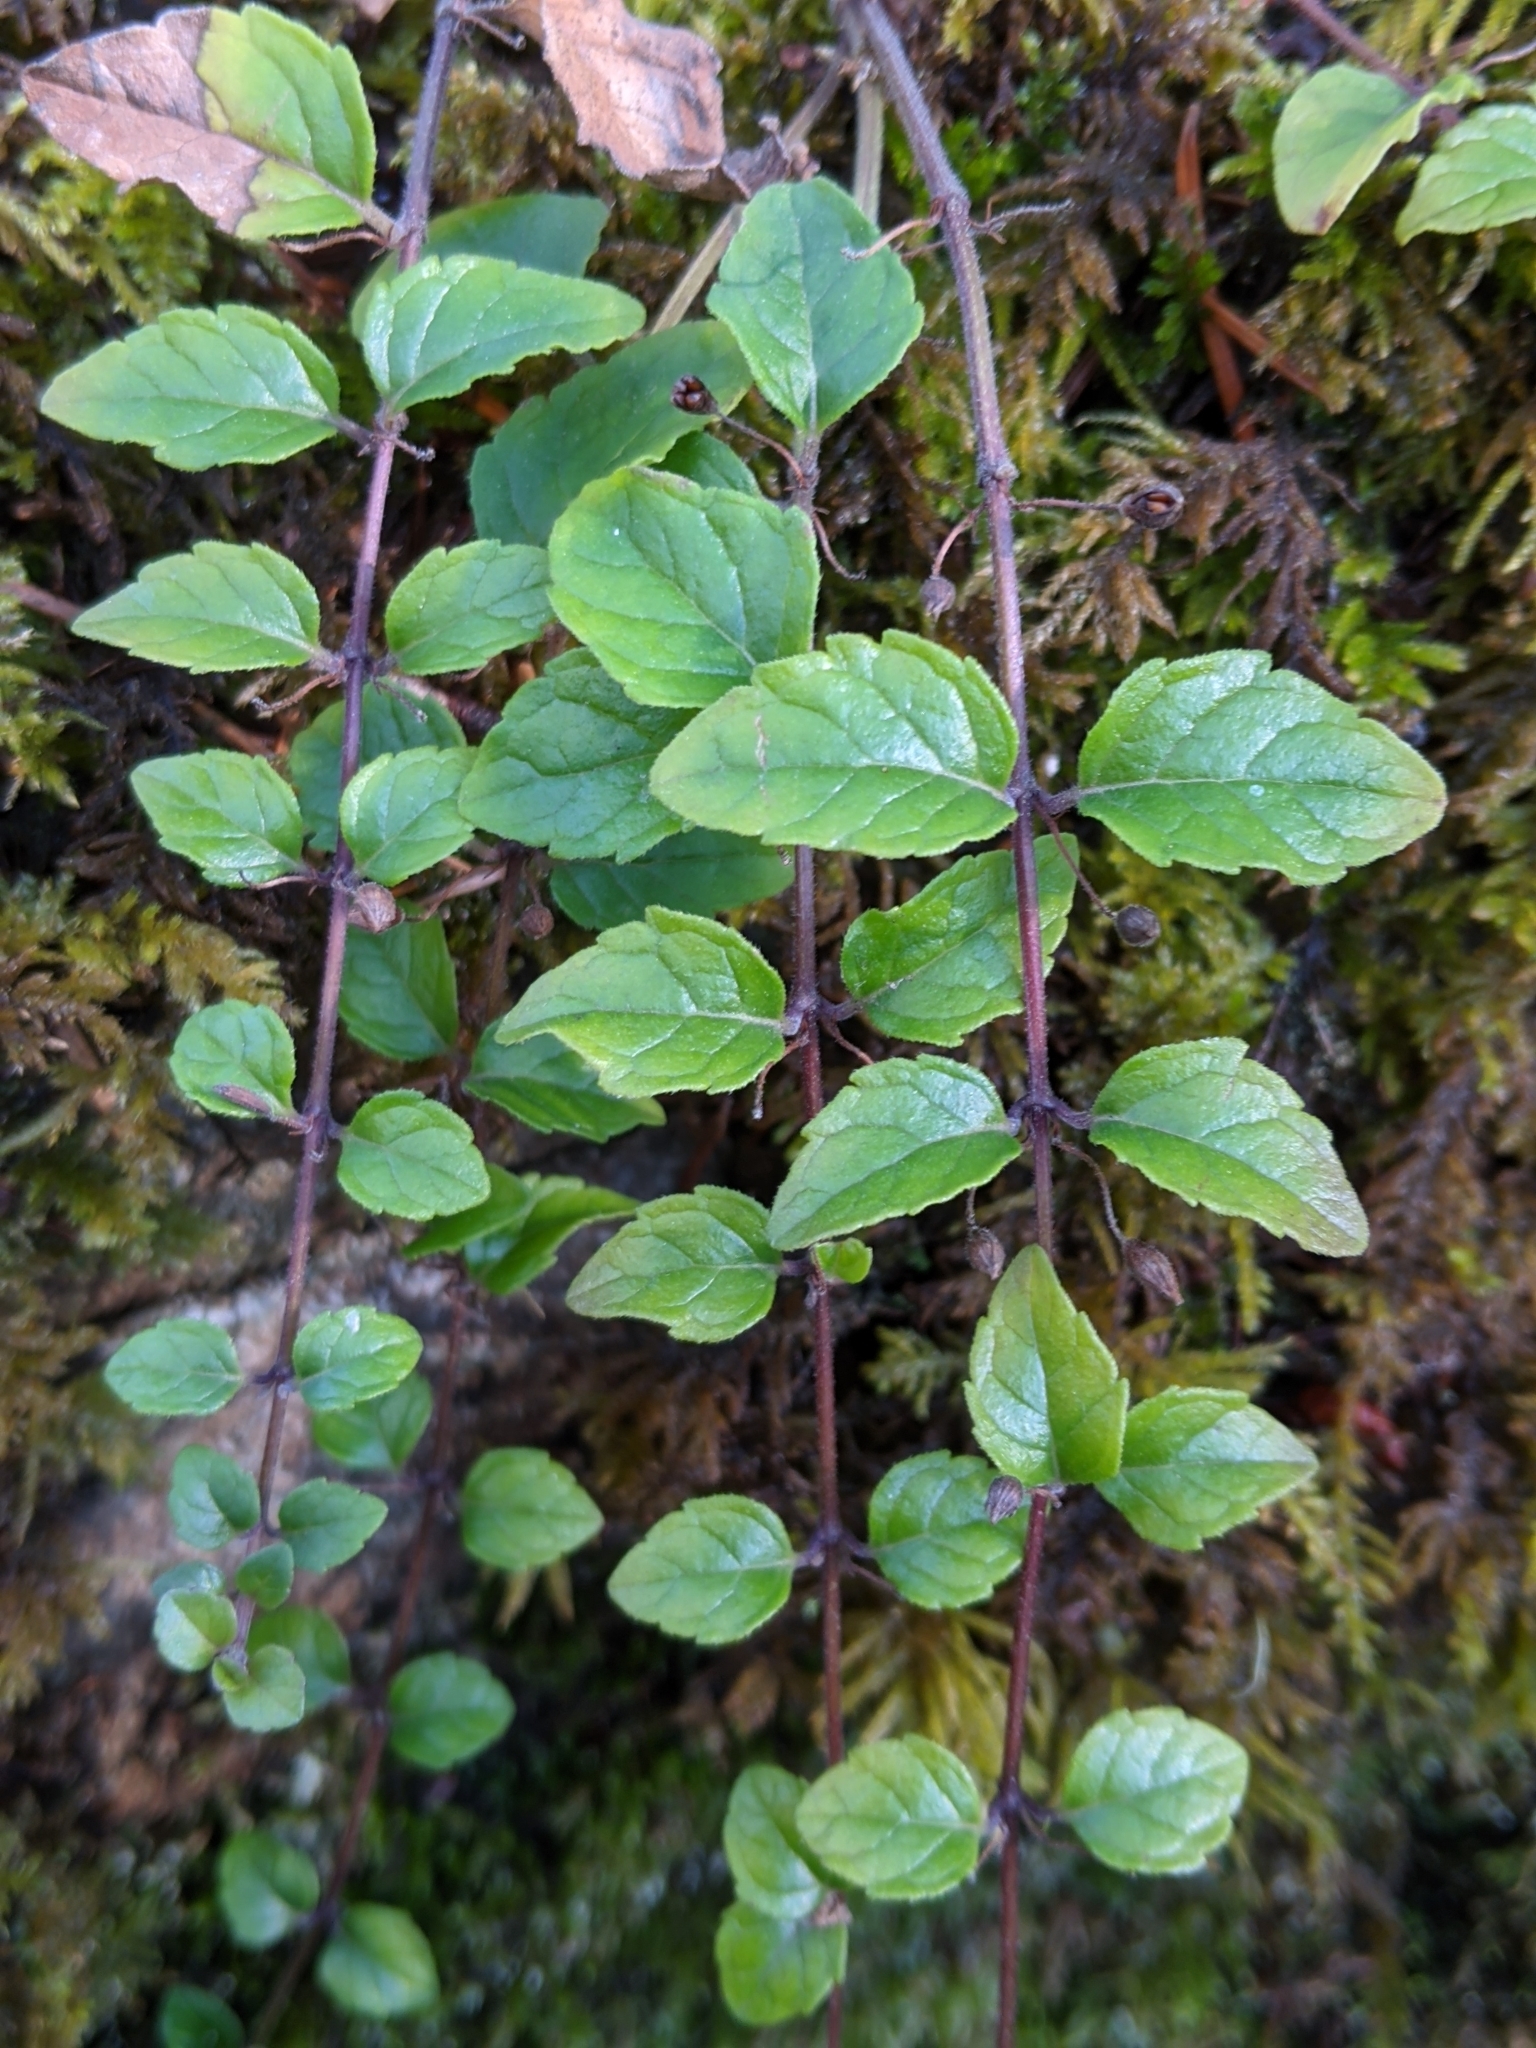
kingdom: Plantae
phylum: Tracheophyta
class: Magnoliopsida
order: Lamiales
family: Lamiaceae
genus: Micromeria
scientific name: Micromeria douglasii
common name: Yerba buena
